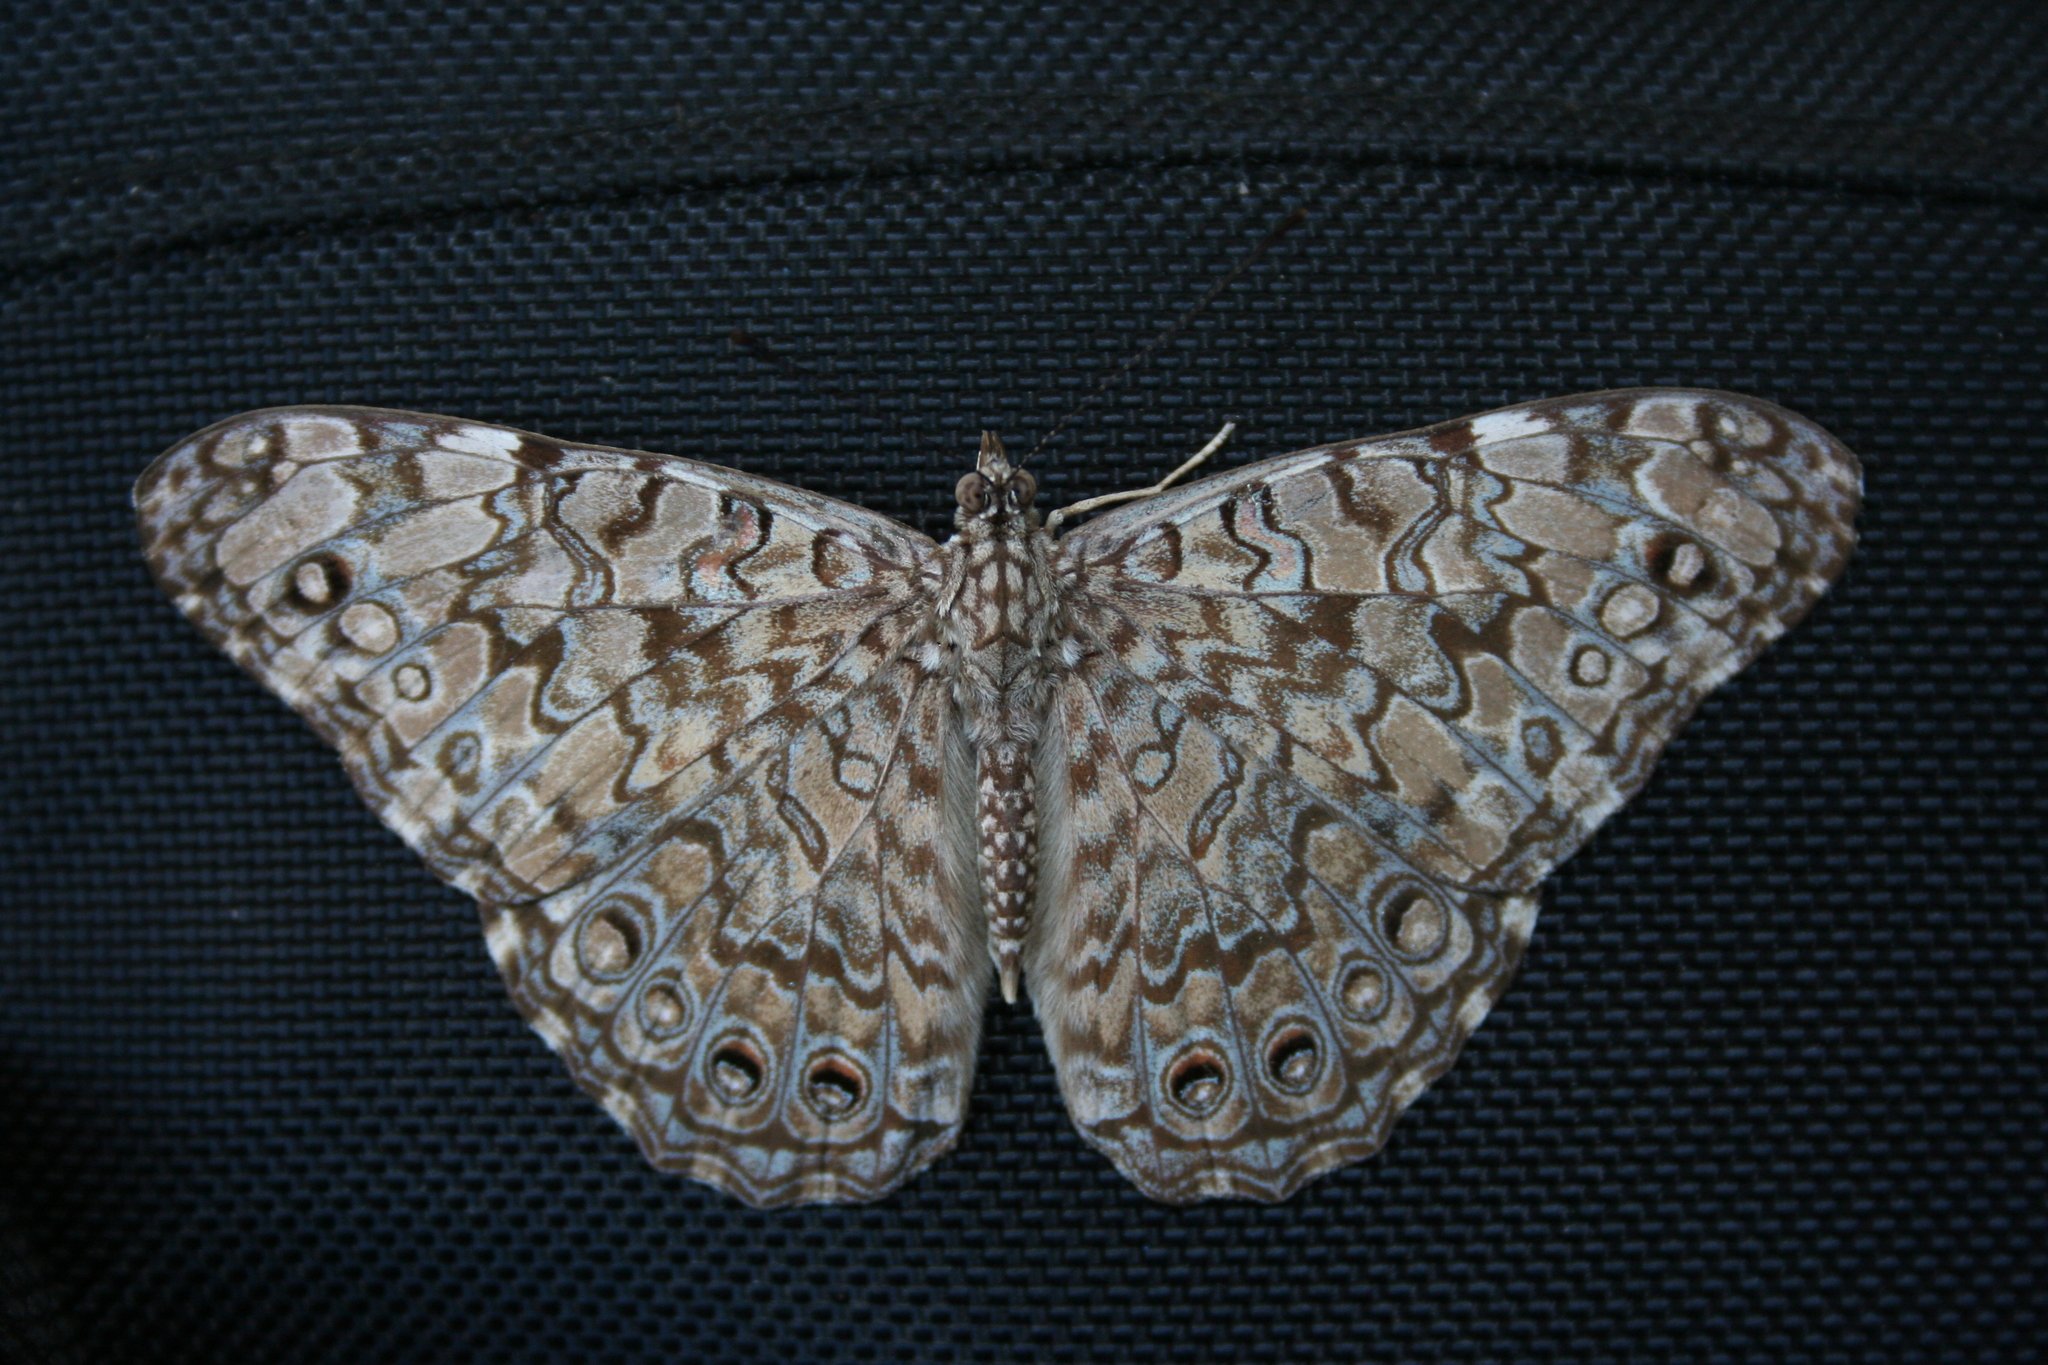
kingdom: Animalia
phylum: Arthropoda
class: Insecta
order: Lepidoptera
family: Nymphalidae
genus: Hamadryas
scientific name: Hamadryas februa
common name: Gray cracker
